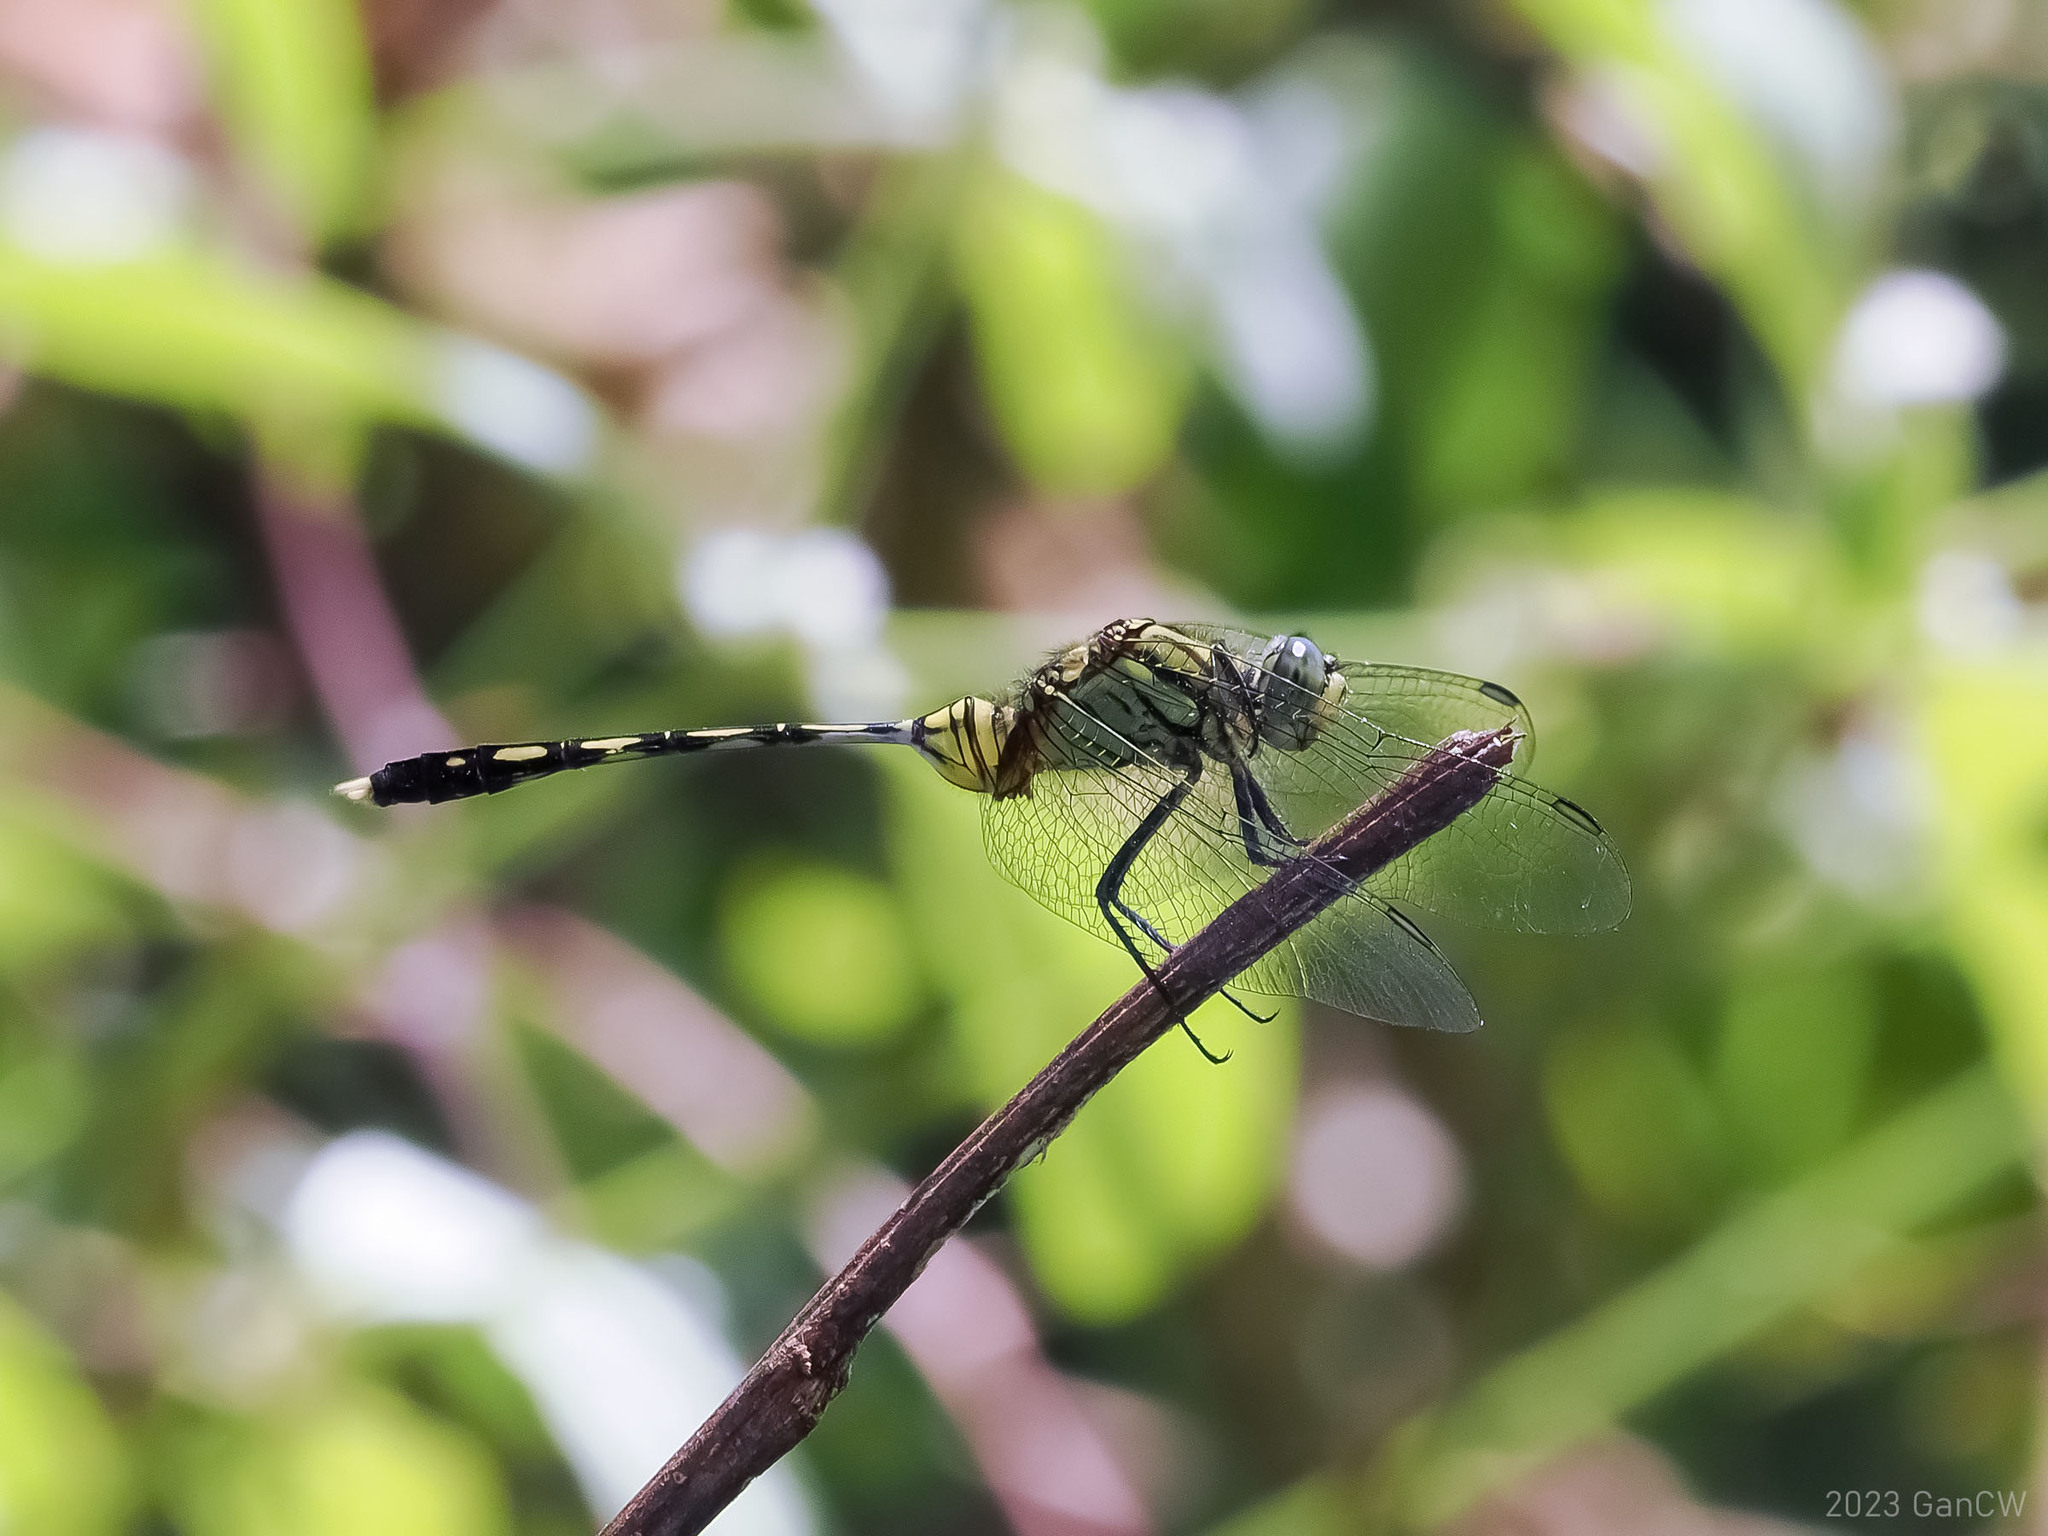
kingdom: Animalia
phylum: Arthropoda
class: Insecta
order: Odonata
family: Libellulidae
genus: Orthetrum
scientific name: Orthetrum serapia
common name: Green skimmer
